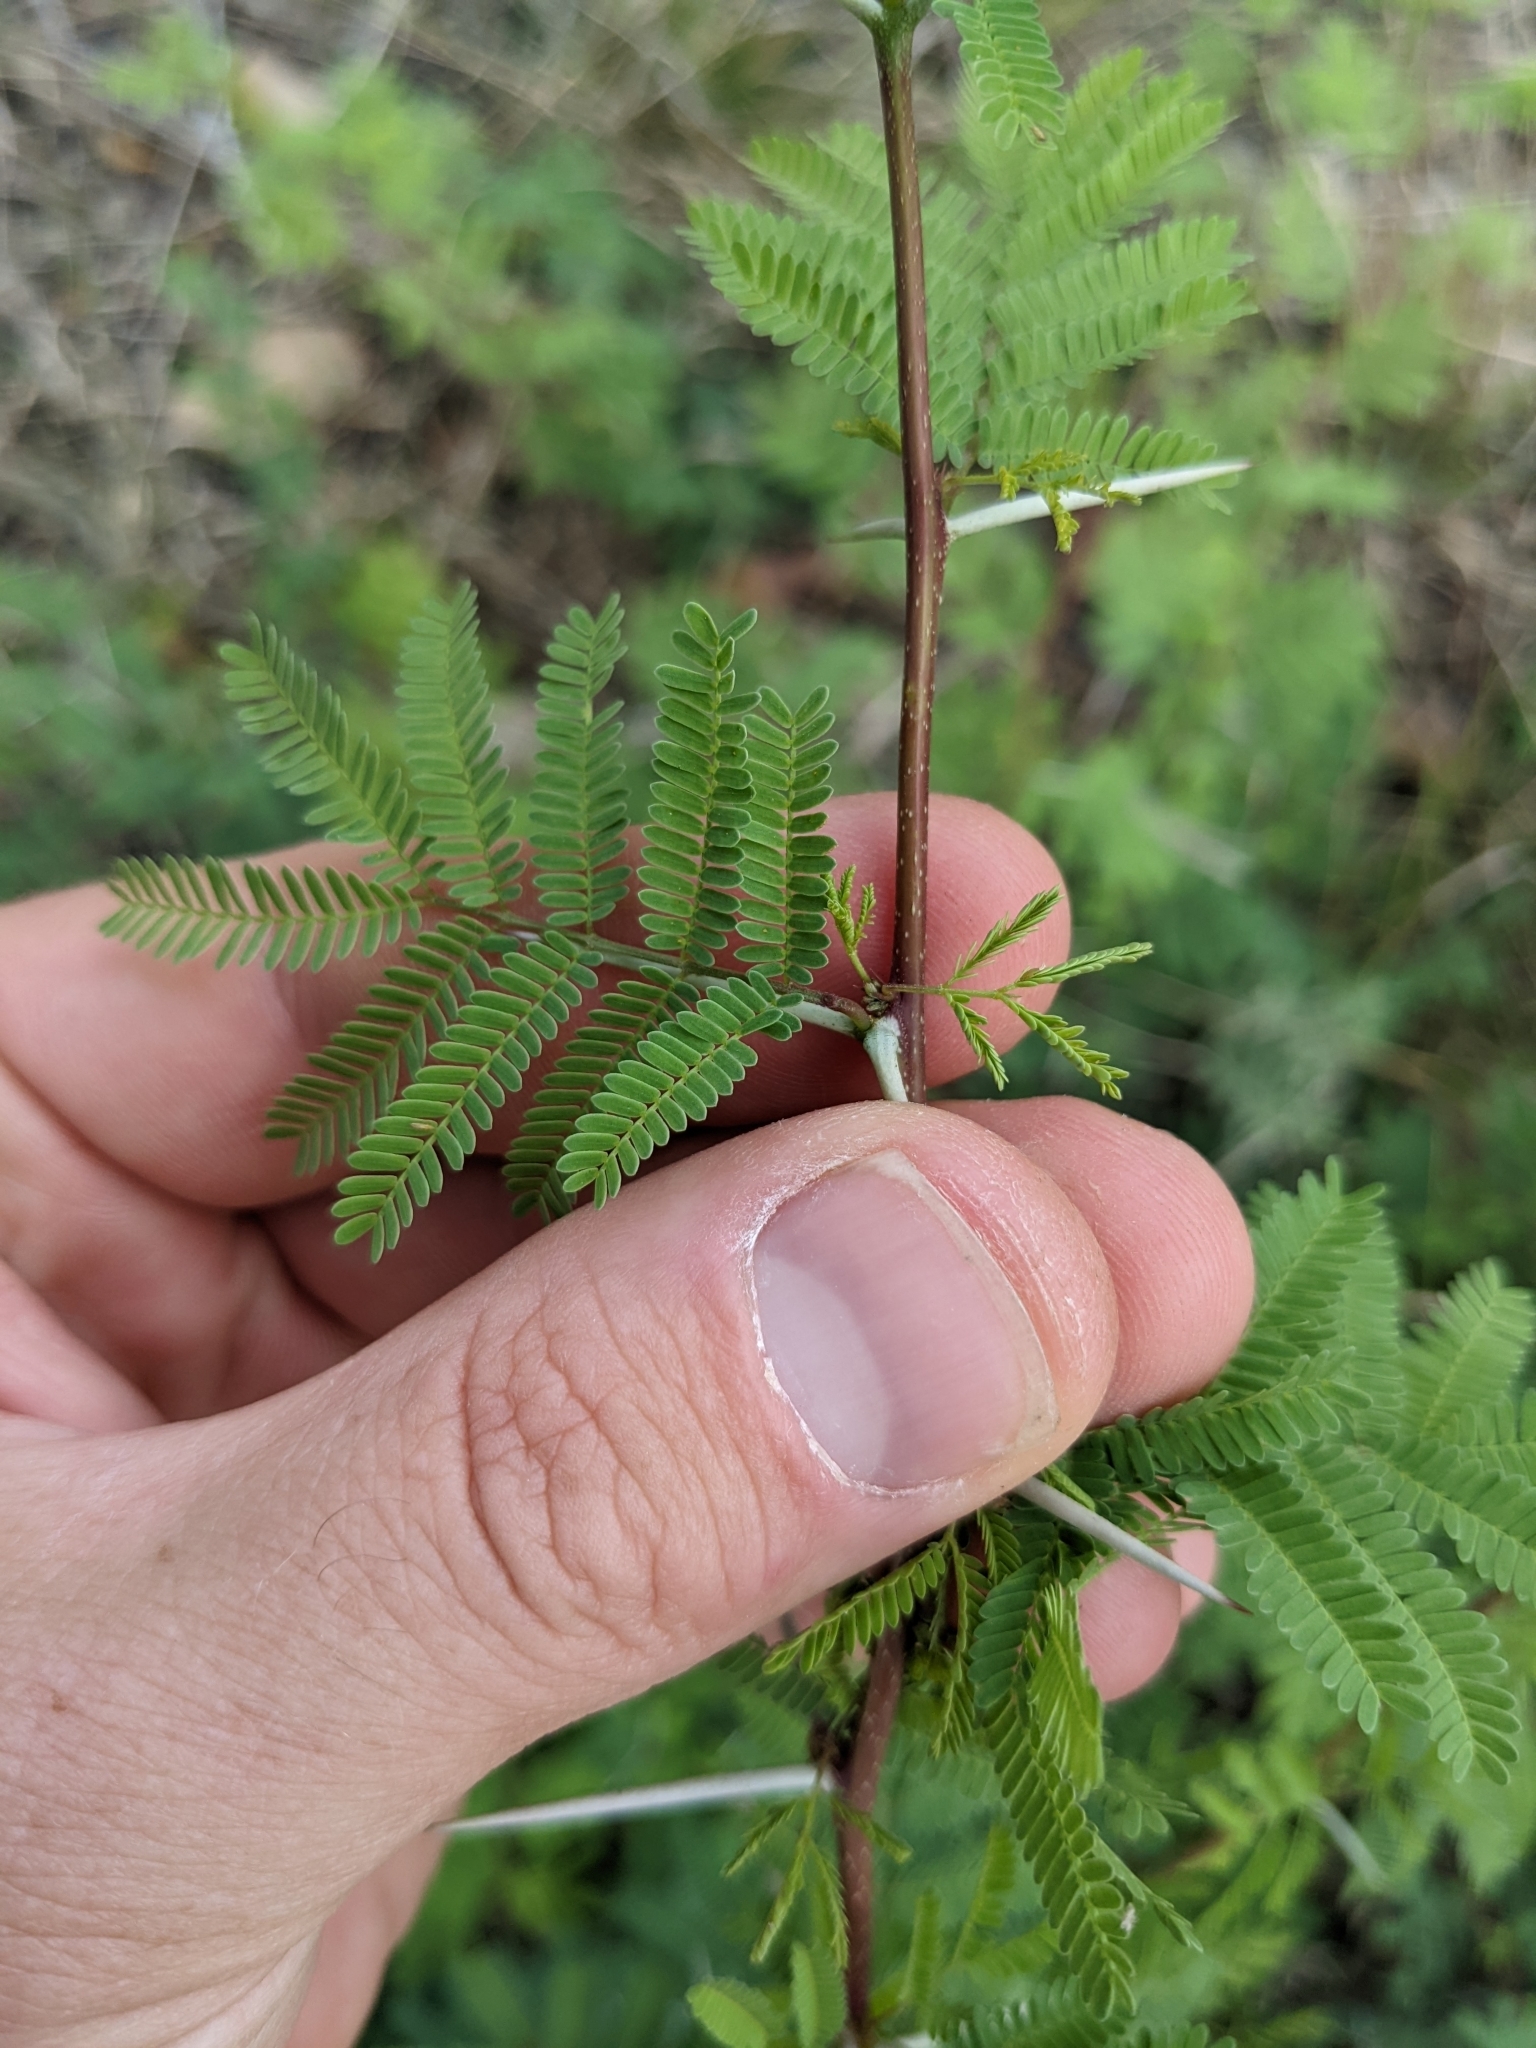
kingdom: Plantae
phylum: Tracheophyta
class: Magnoliopsida
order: Fabales
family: Fabaceae
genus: Vachellia
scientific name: Vachellia farnesiana
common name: Sweet acacia
